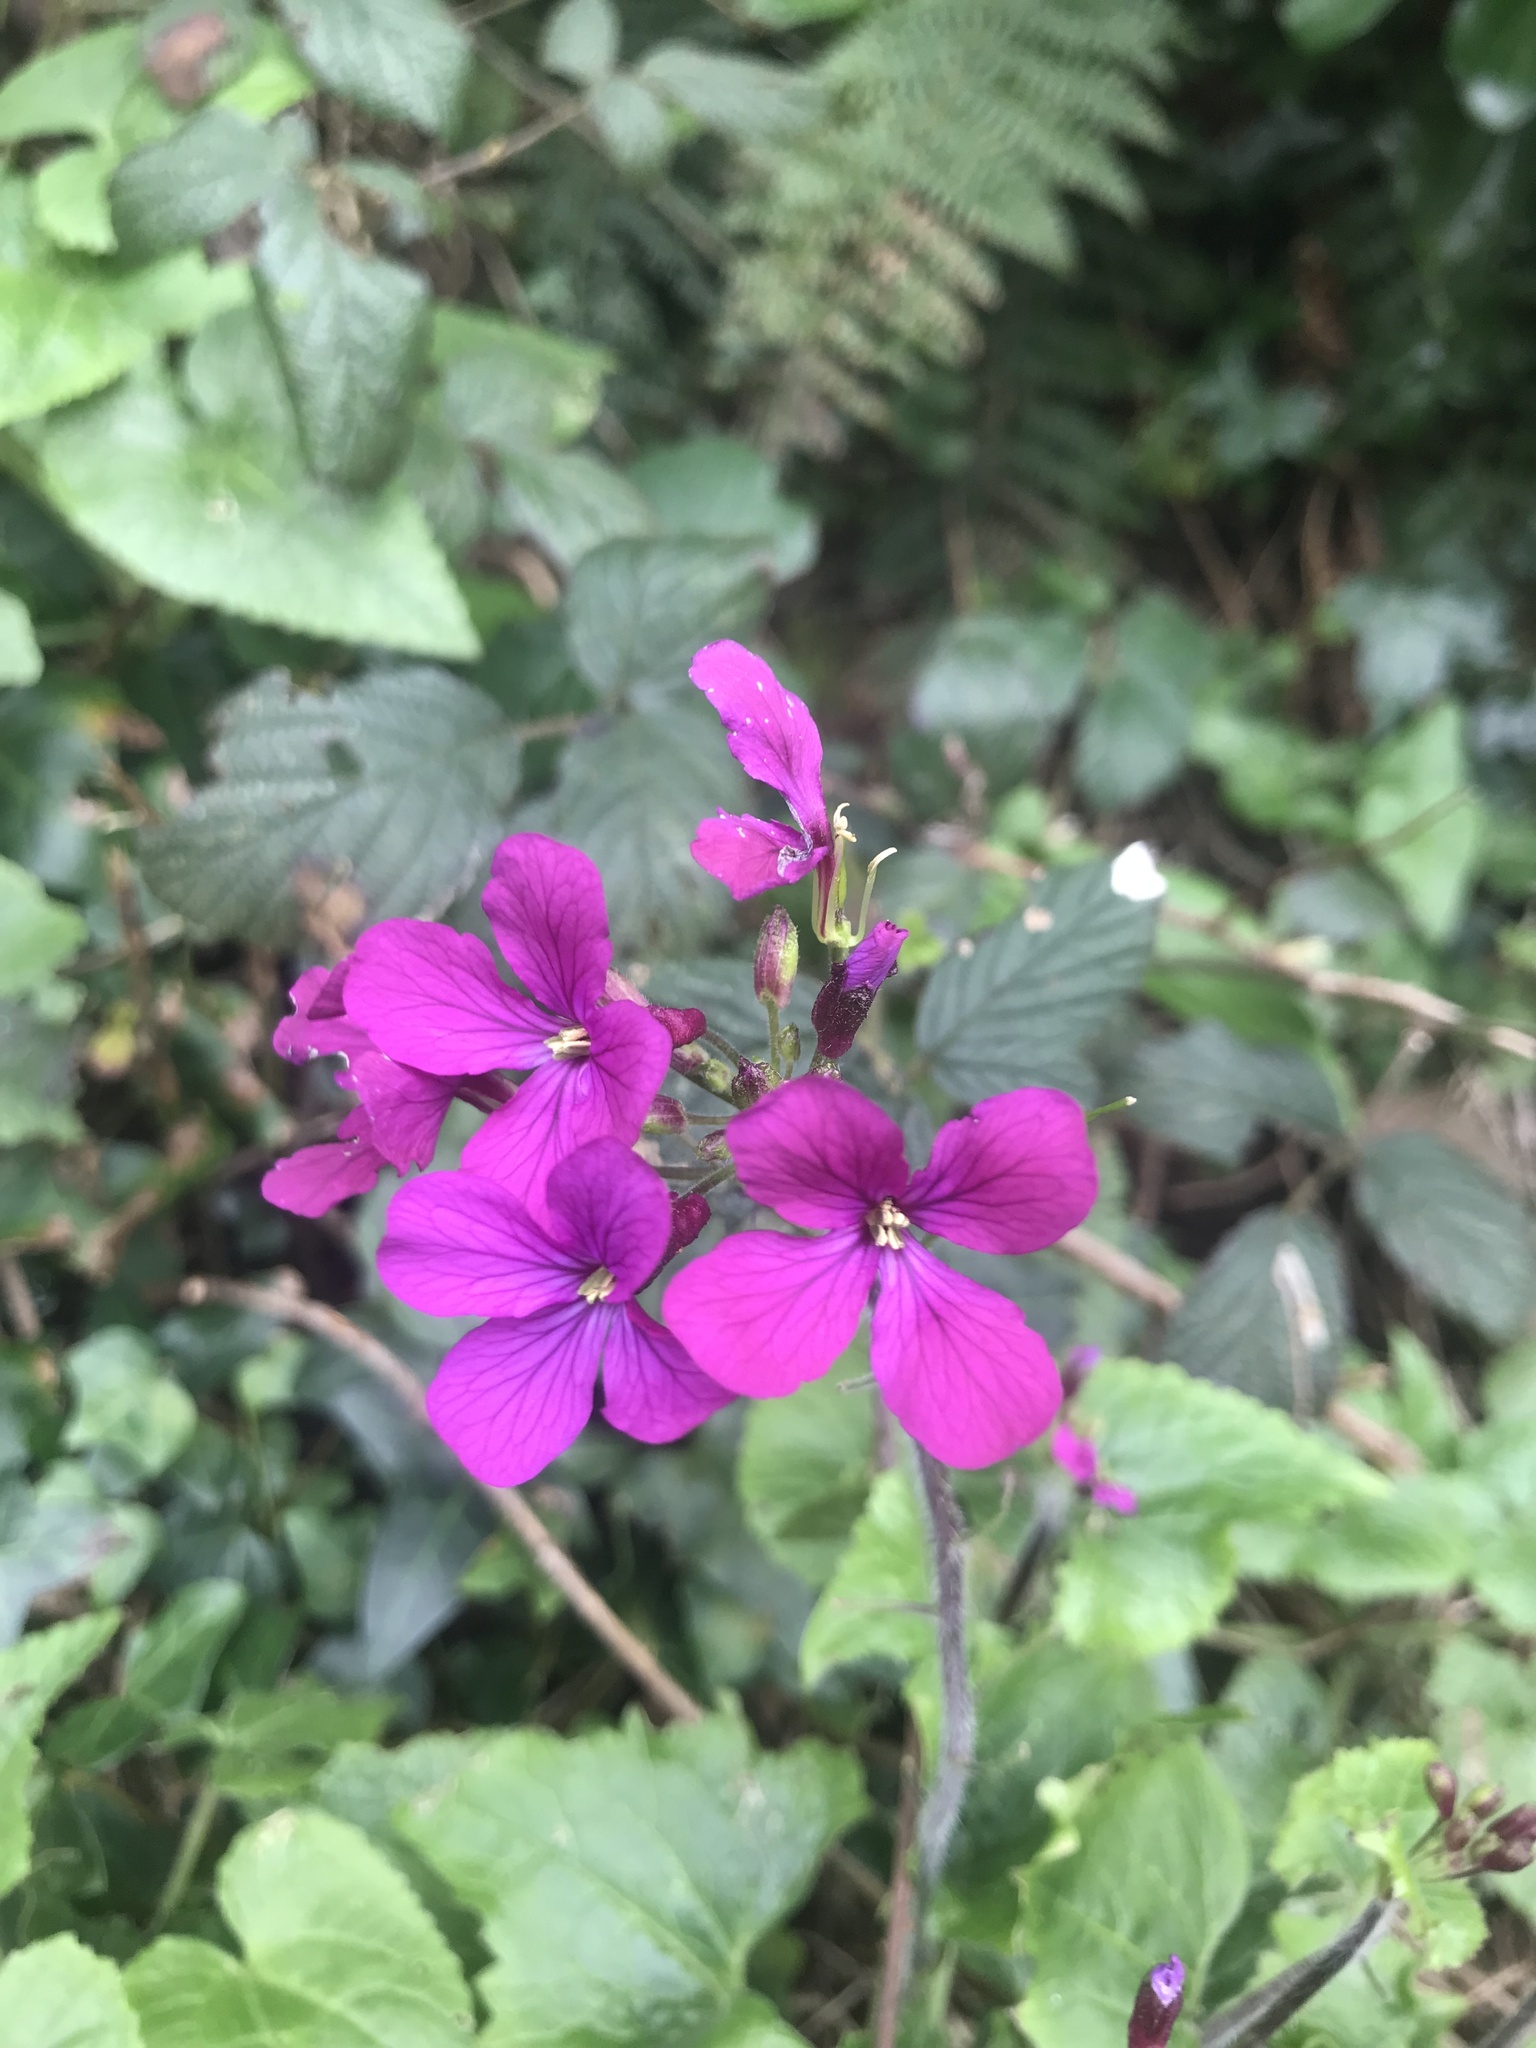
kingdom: Plantae
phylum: Tracheophyta
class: Magnoliopsida
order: Brassicales
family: Brassicaceae
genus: Lunaria
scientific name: Lunaria annua
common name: Honesty
